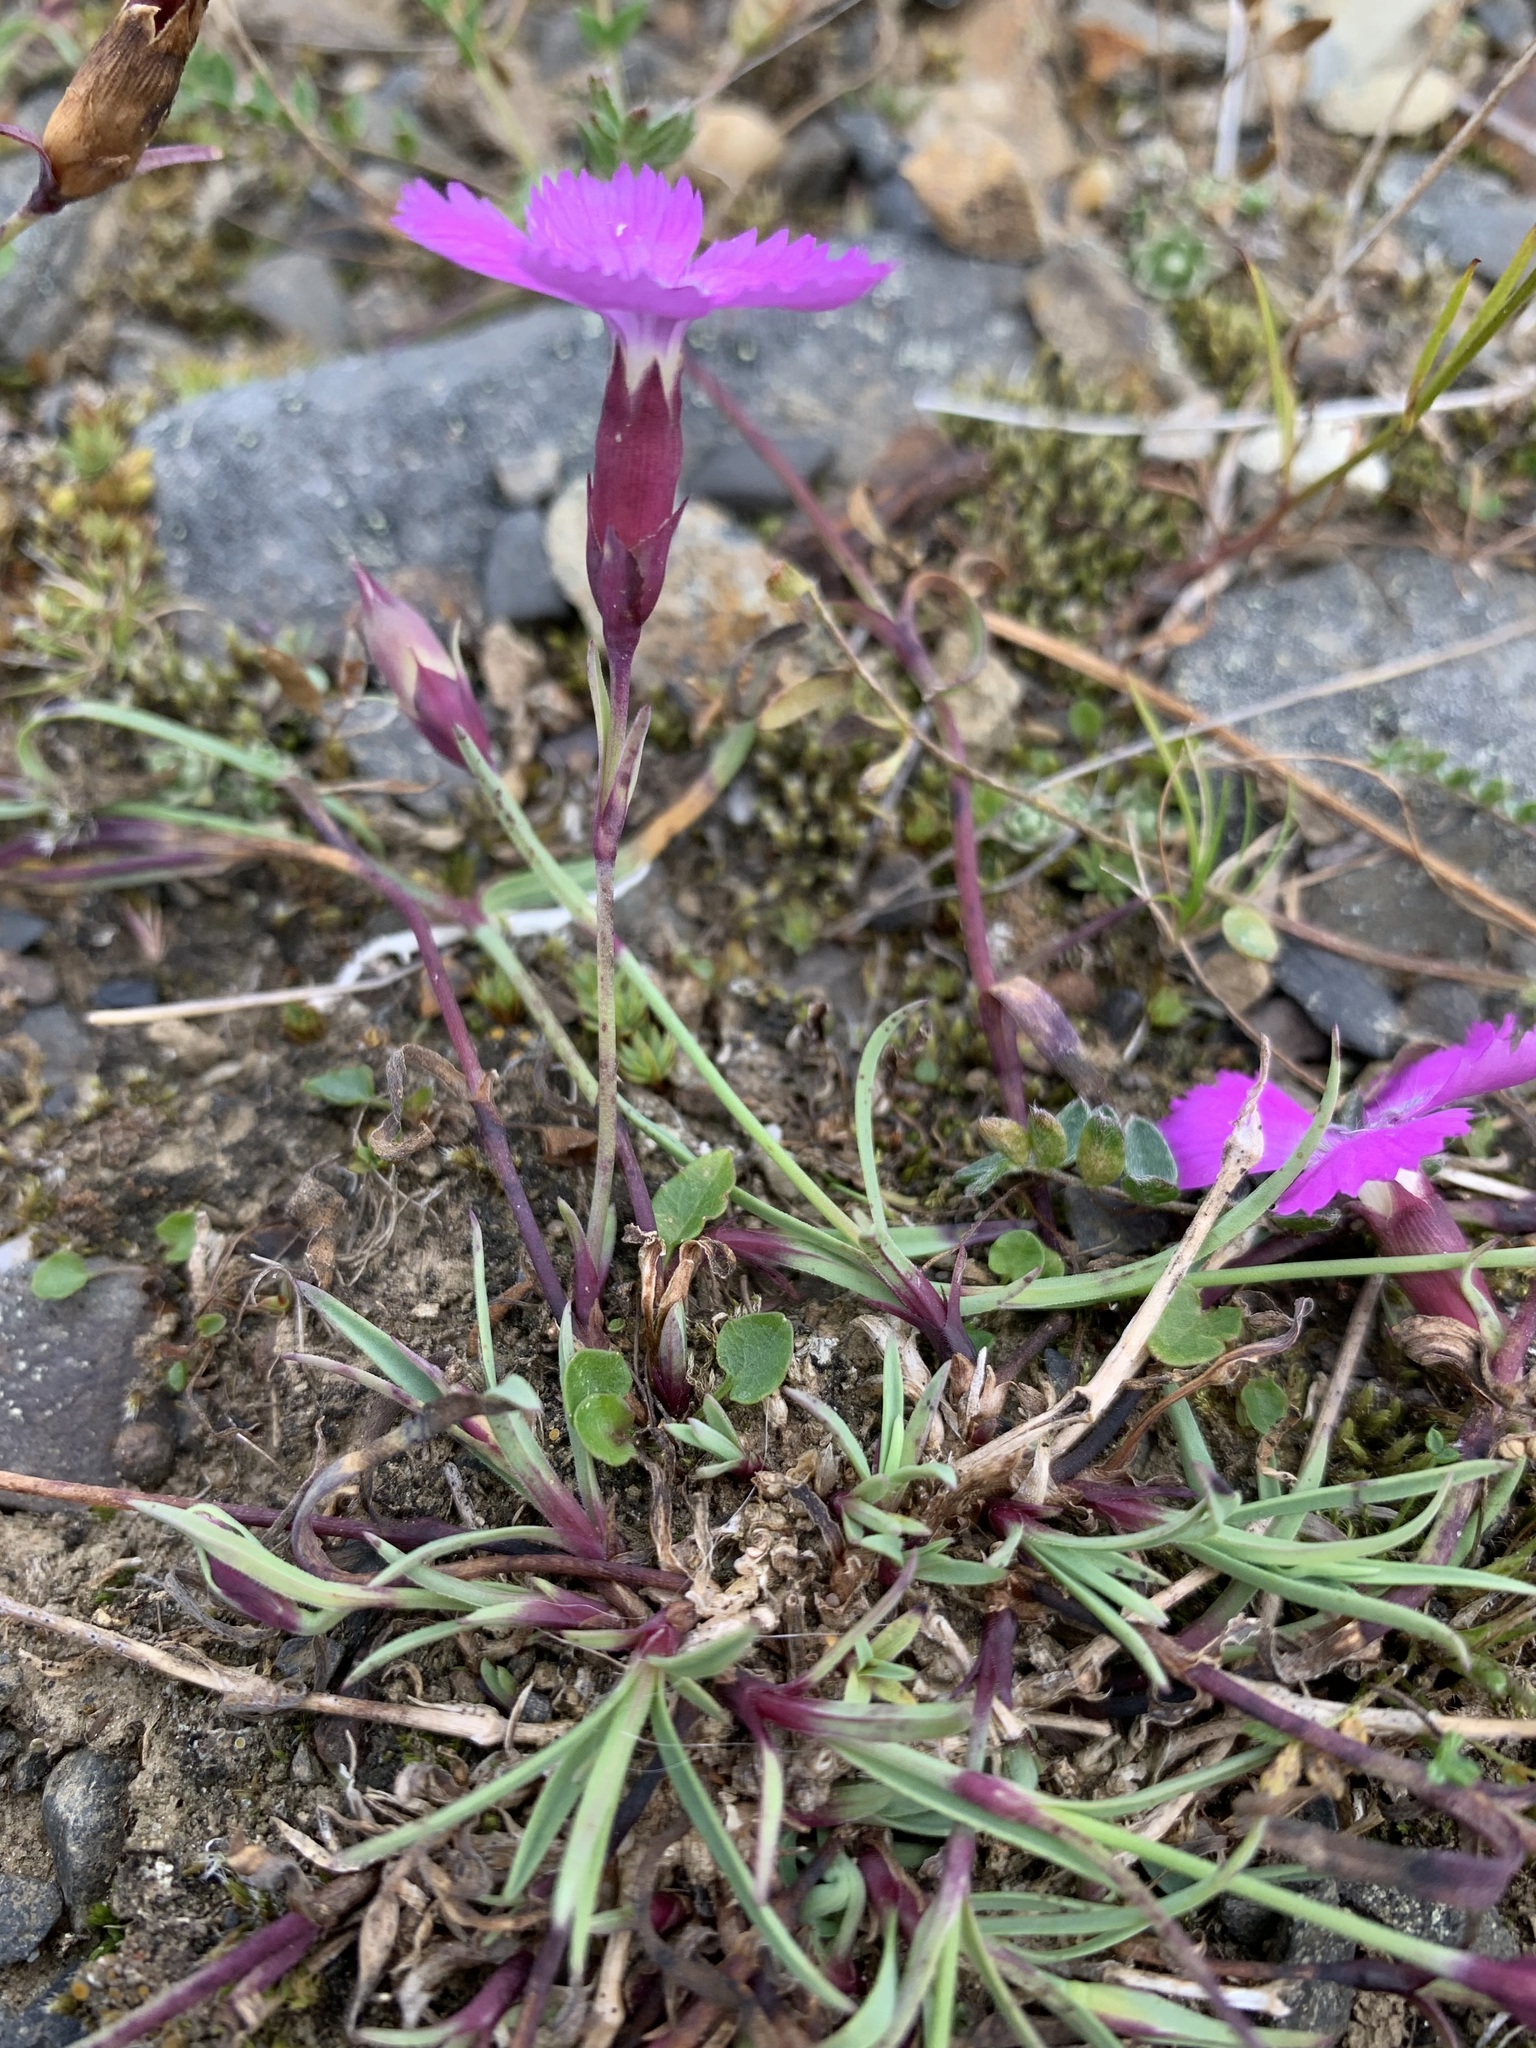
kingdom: Plantae
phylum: Tracheophyta
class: Magnoliopsida
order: Caryophyllales
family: Caryophyllaceae
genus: Dianthus
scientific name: Dianthus repens
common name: Northern pink
